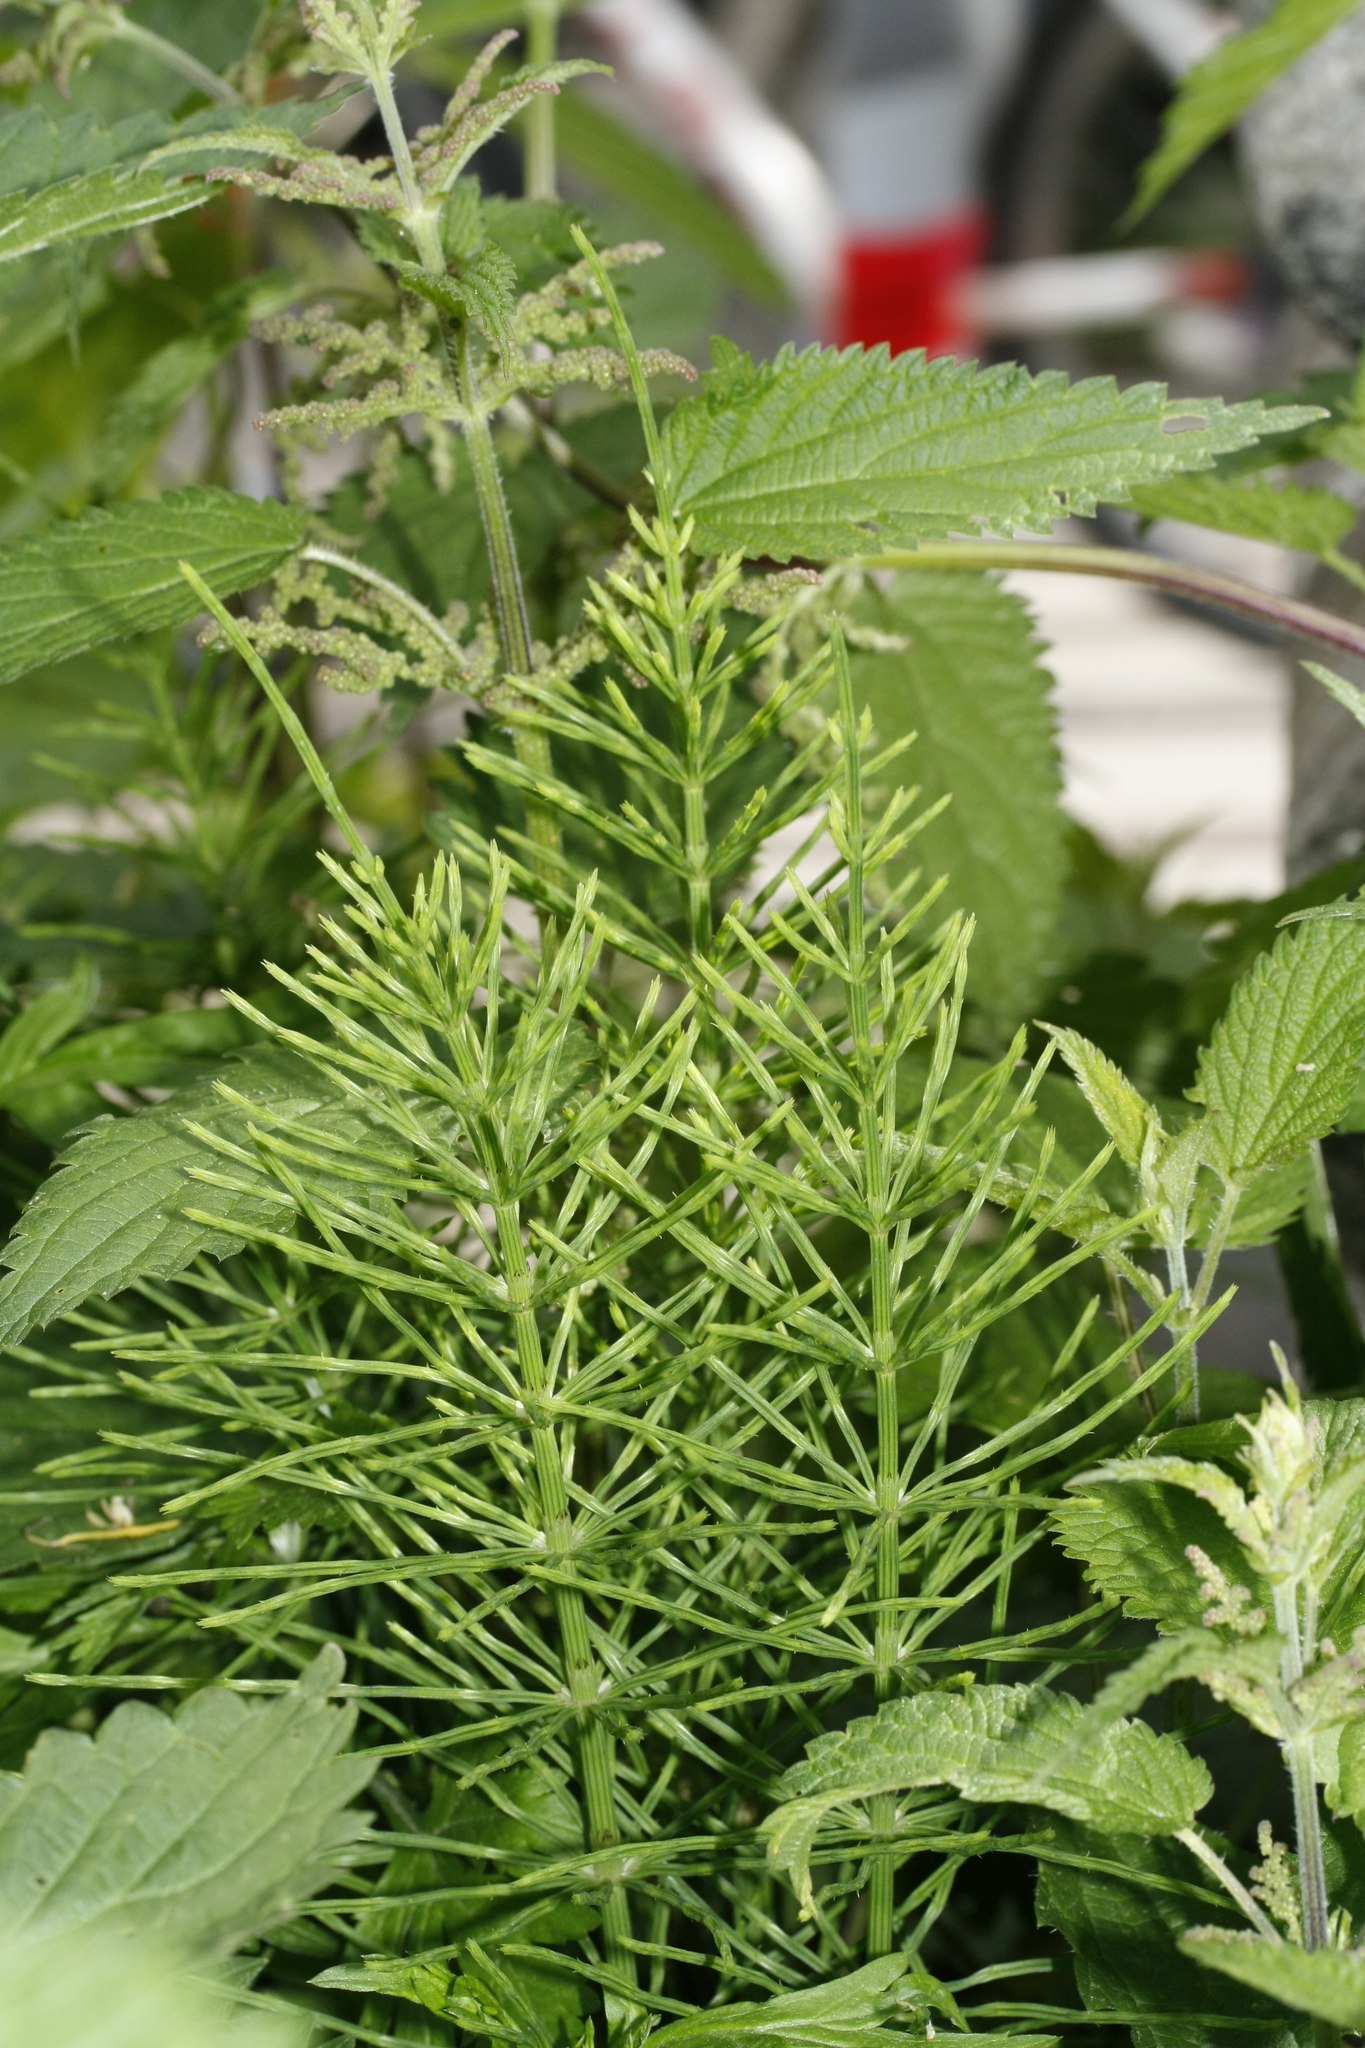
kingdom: Plantae
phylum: Tracheophyta
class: Polypodiopsida
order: Equisetales
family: Equisetaceae
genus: Equisetum
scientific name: Equisetum arvense
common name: Field horsetail
